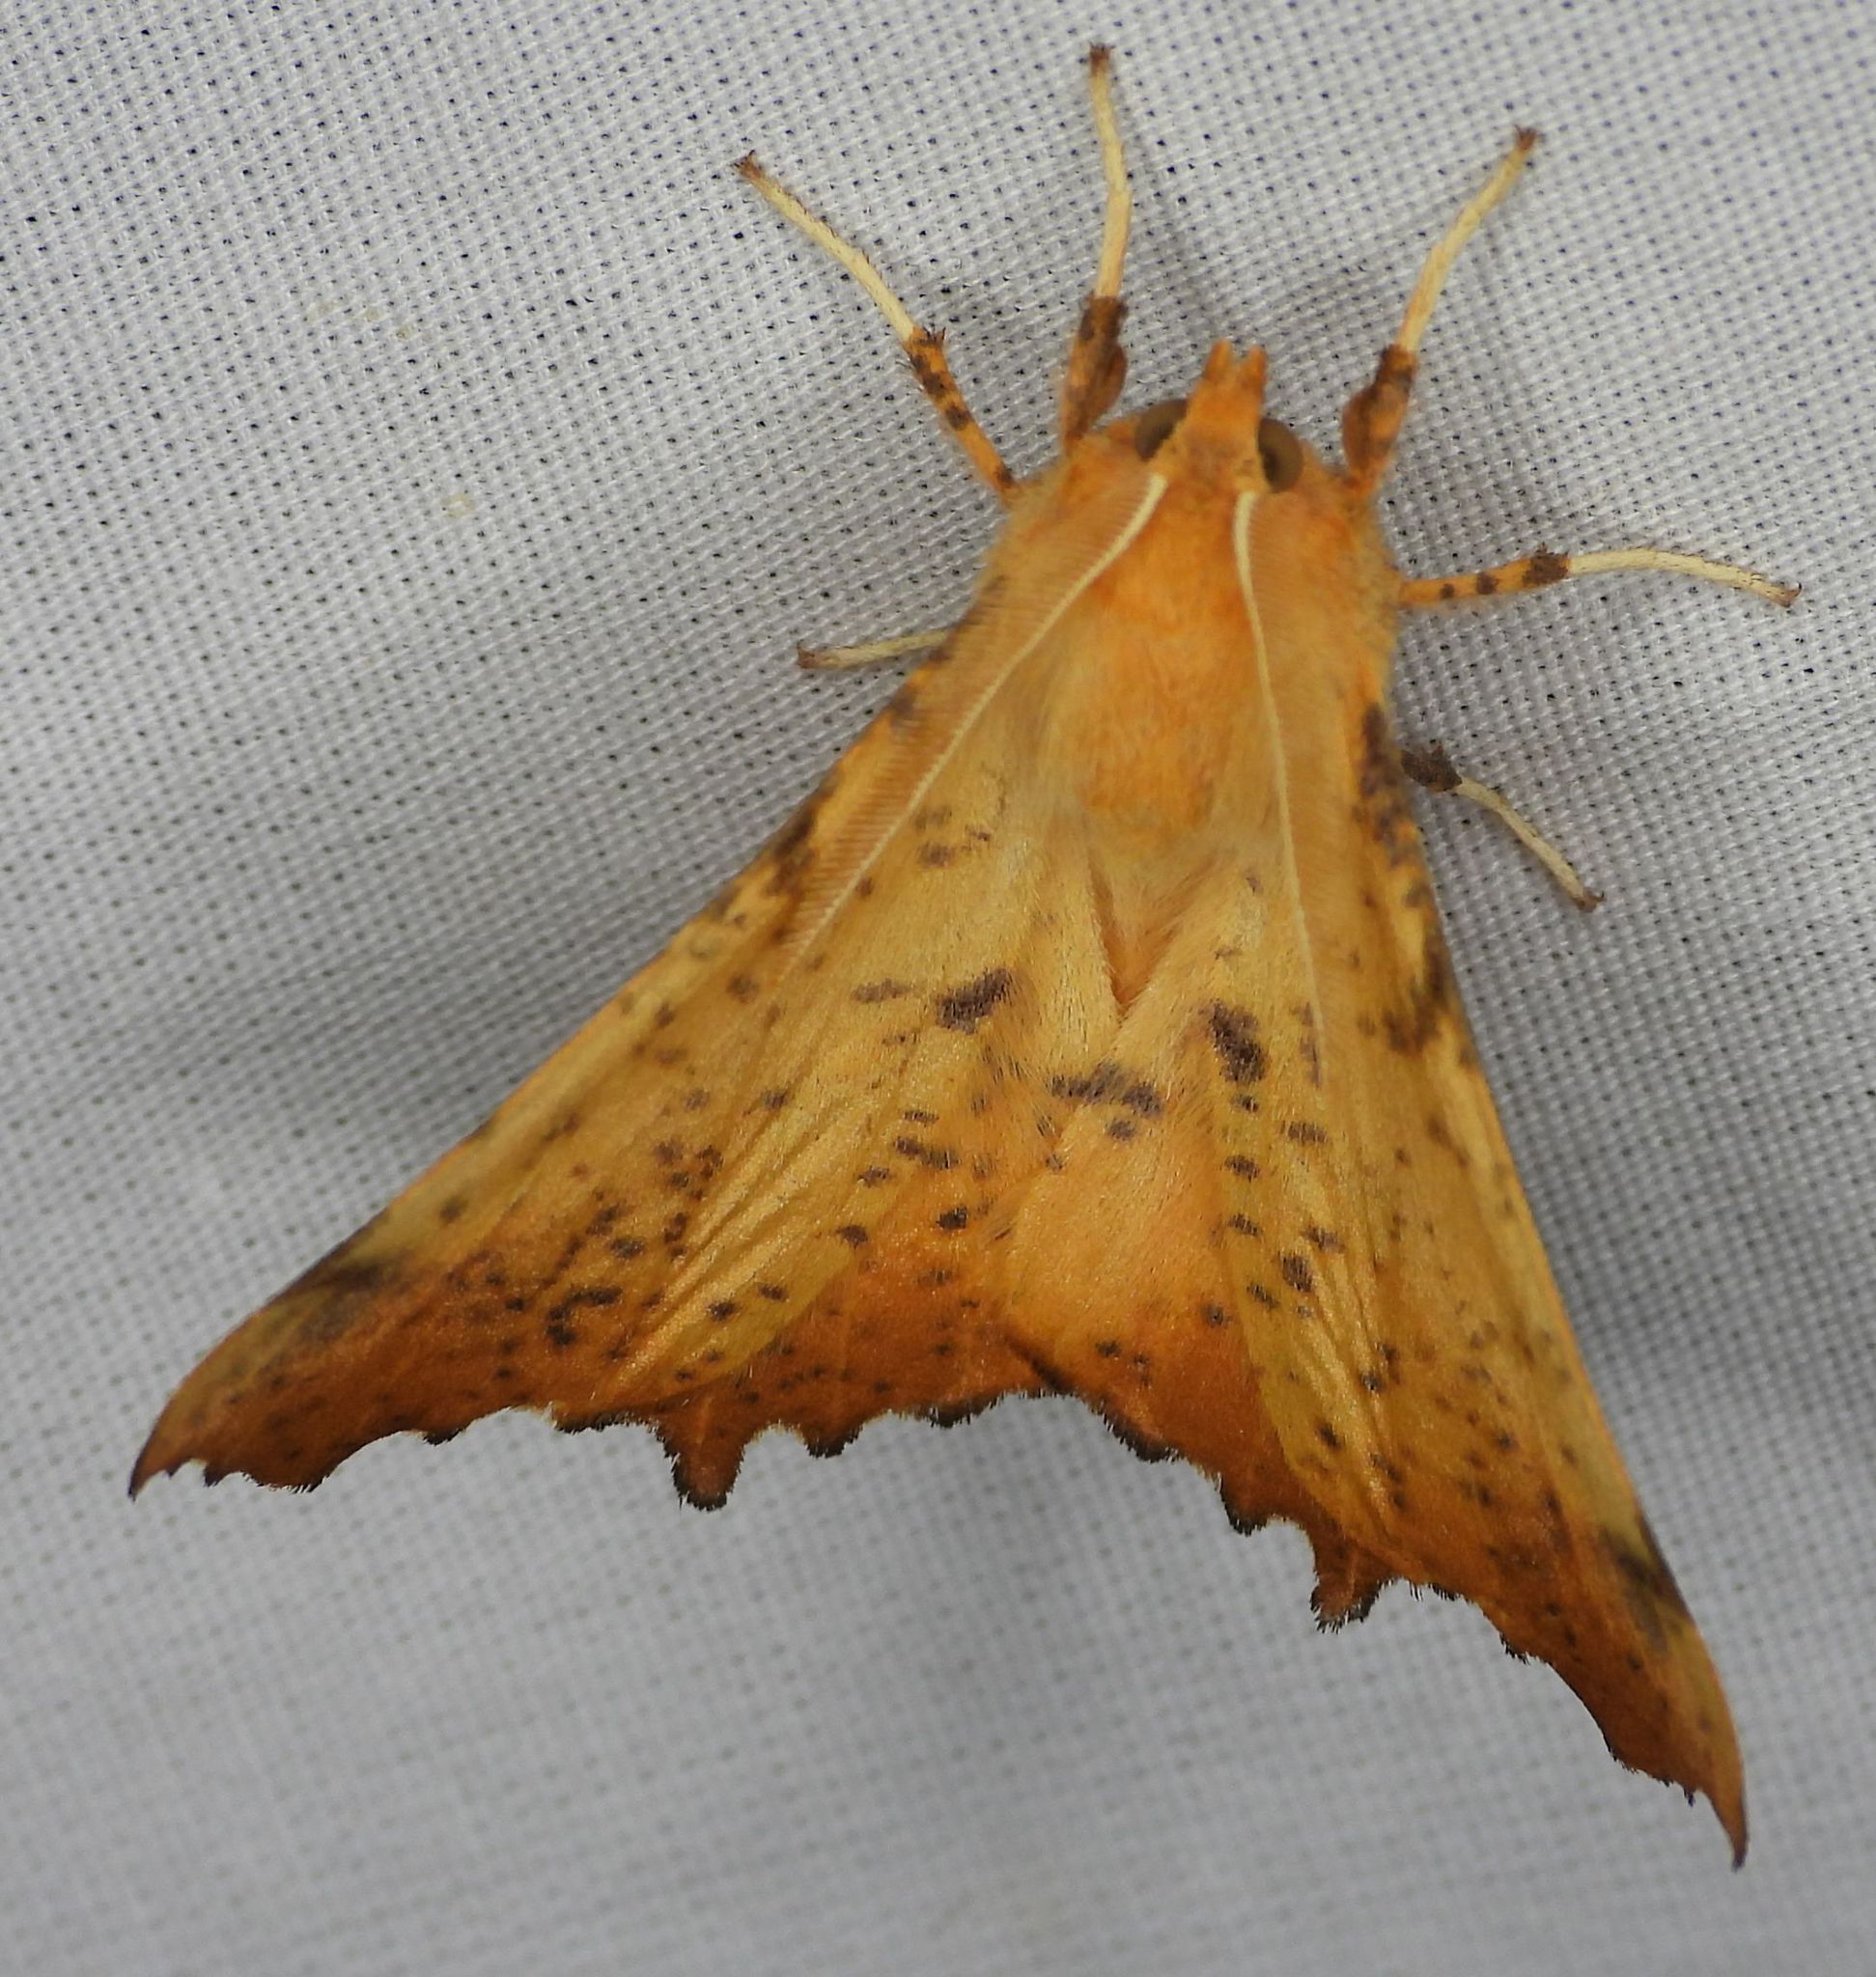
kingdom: Animalia
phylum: Arthropoda
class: Insecta
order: Lepidoptera
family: Geometridae
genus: Ennomos
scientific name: Ennomos magnaria
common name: Maple spanworm
